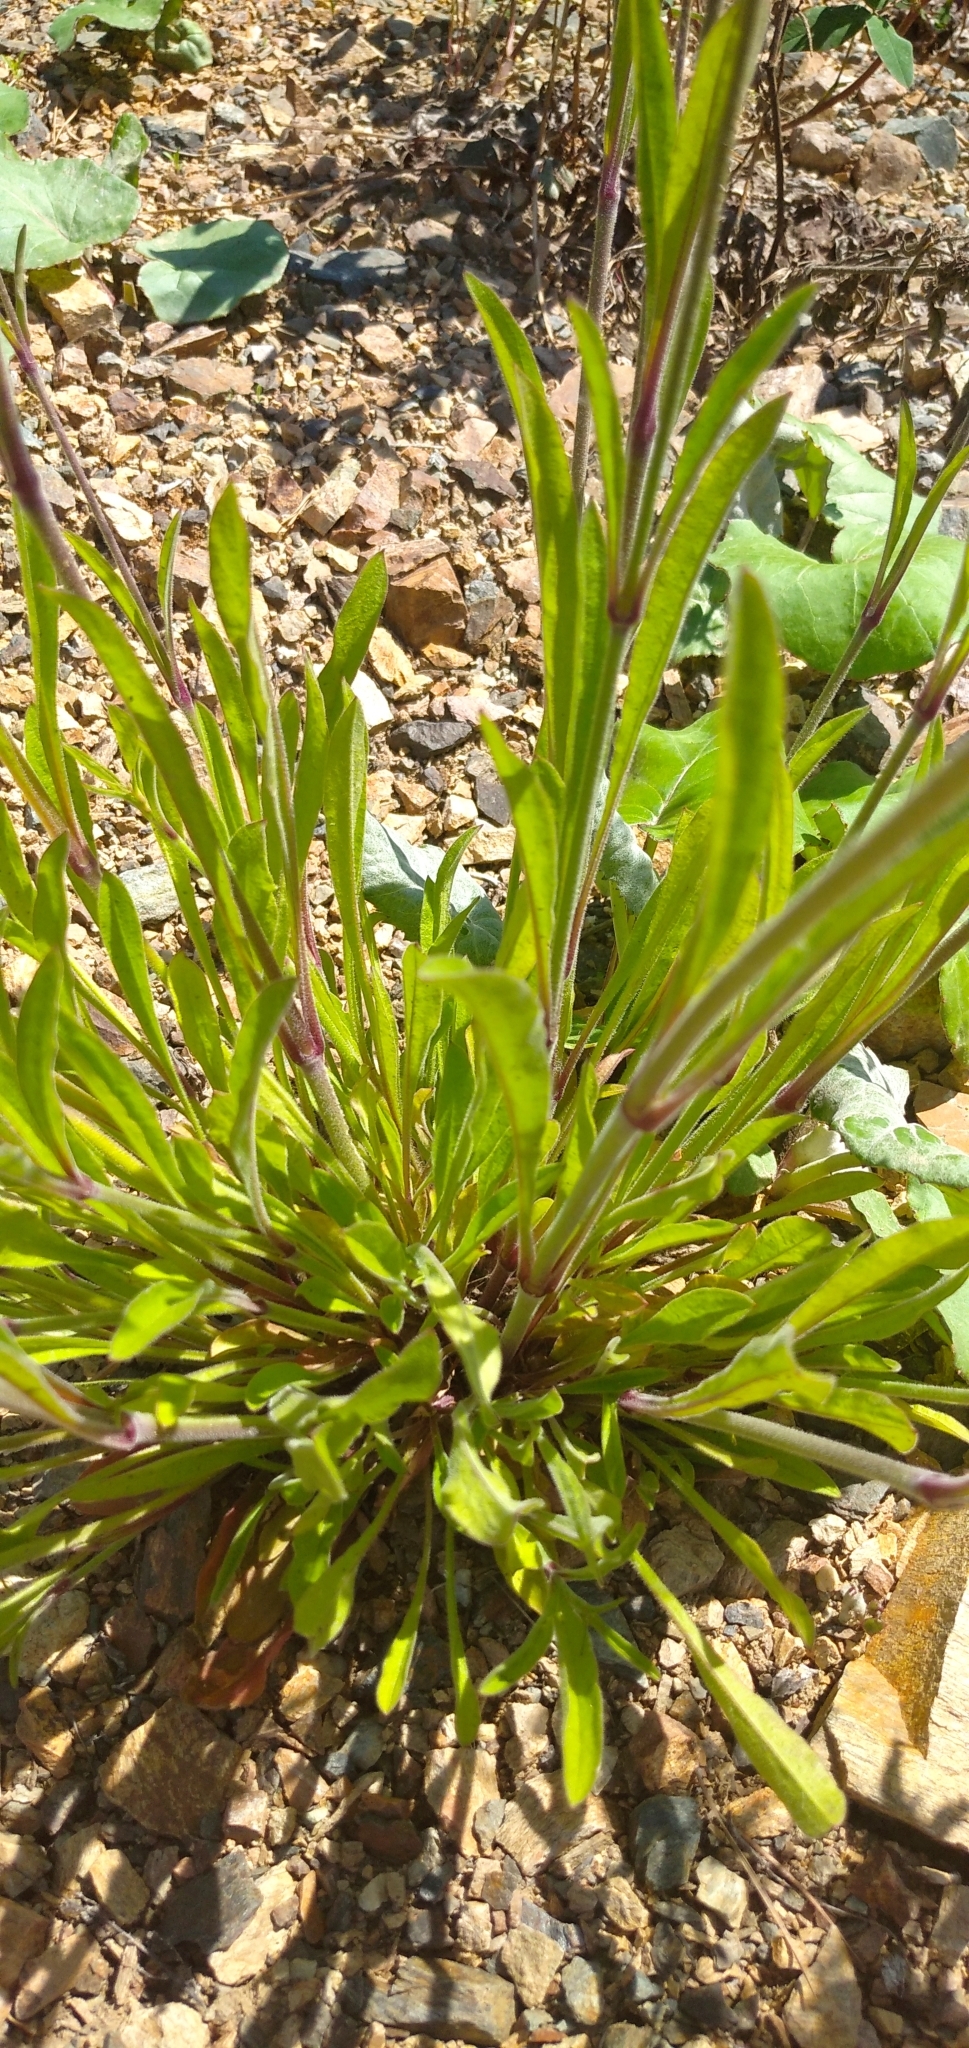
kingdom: Plantae
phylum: Tracheophyta
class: Magnoliopsida
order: Caryophyllales
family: Caryophyllaceae
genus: Silene
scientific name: Silene nutans
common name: Nottingham catchfly
